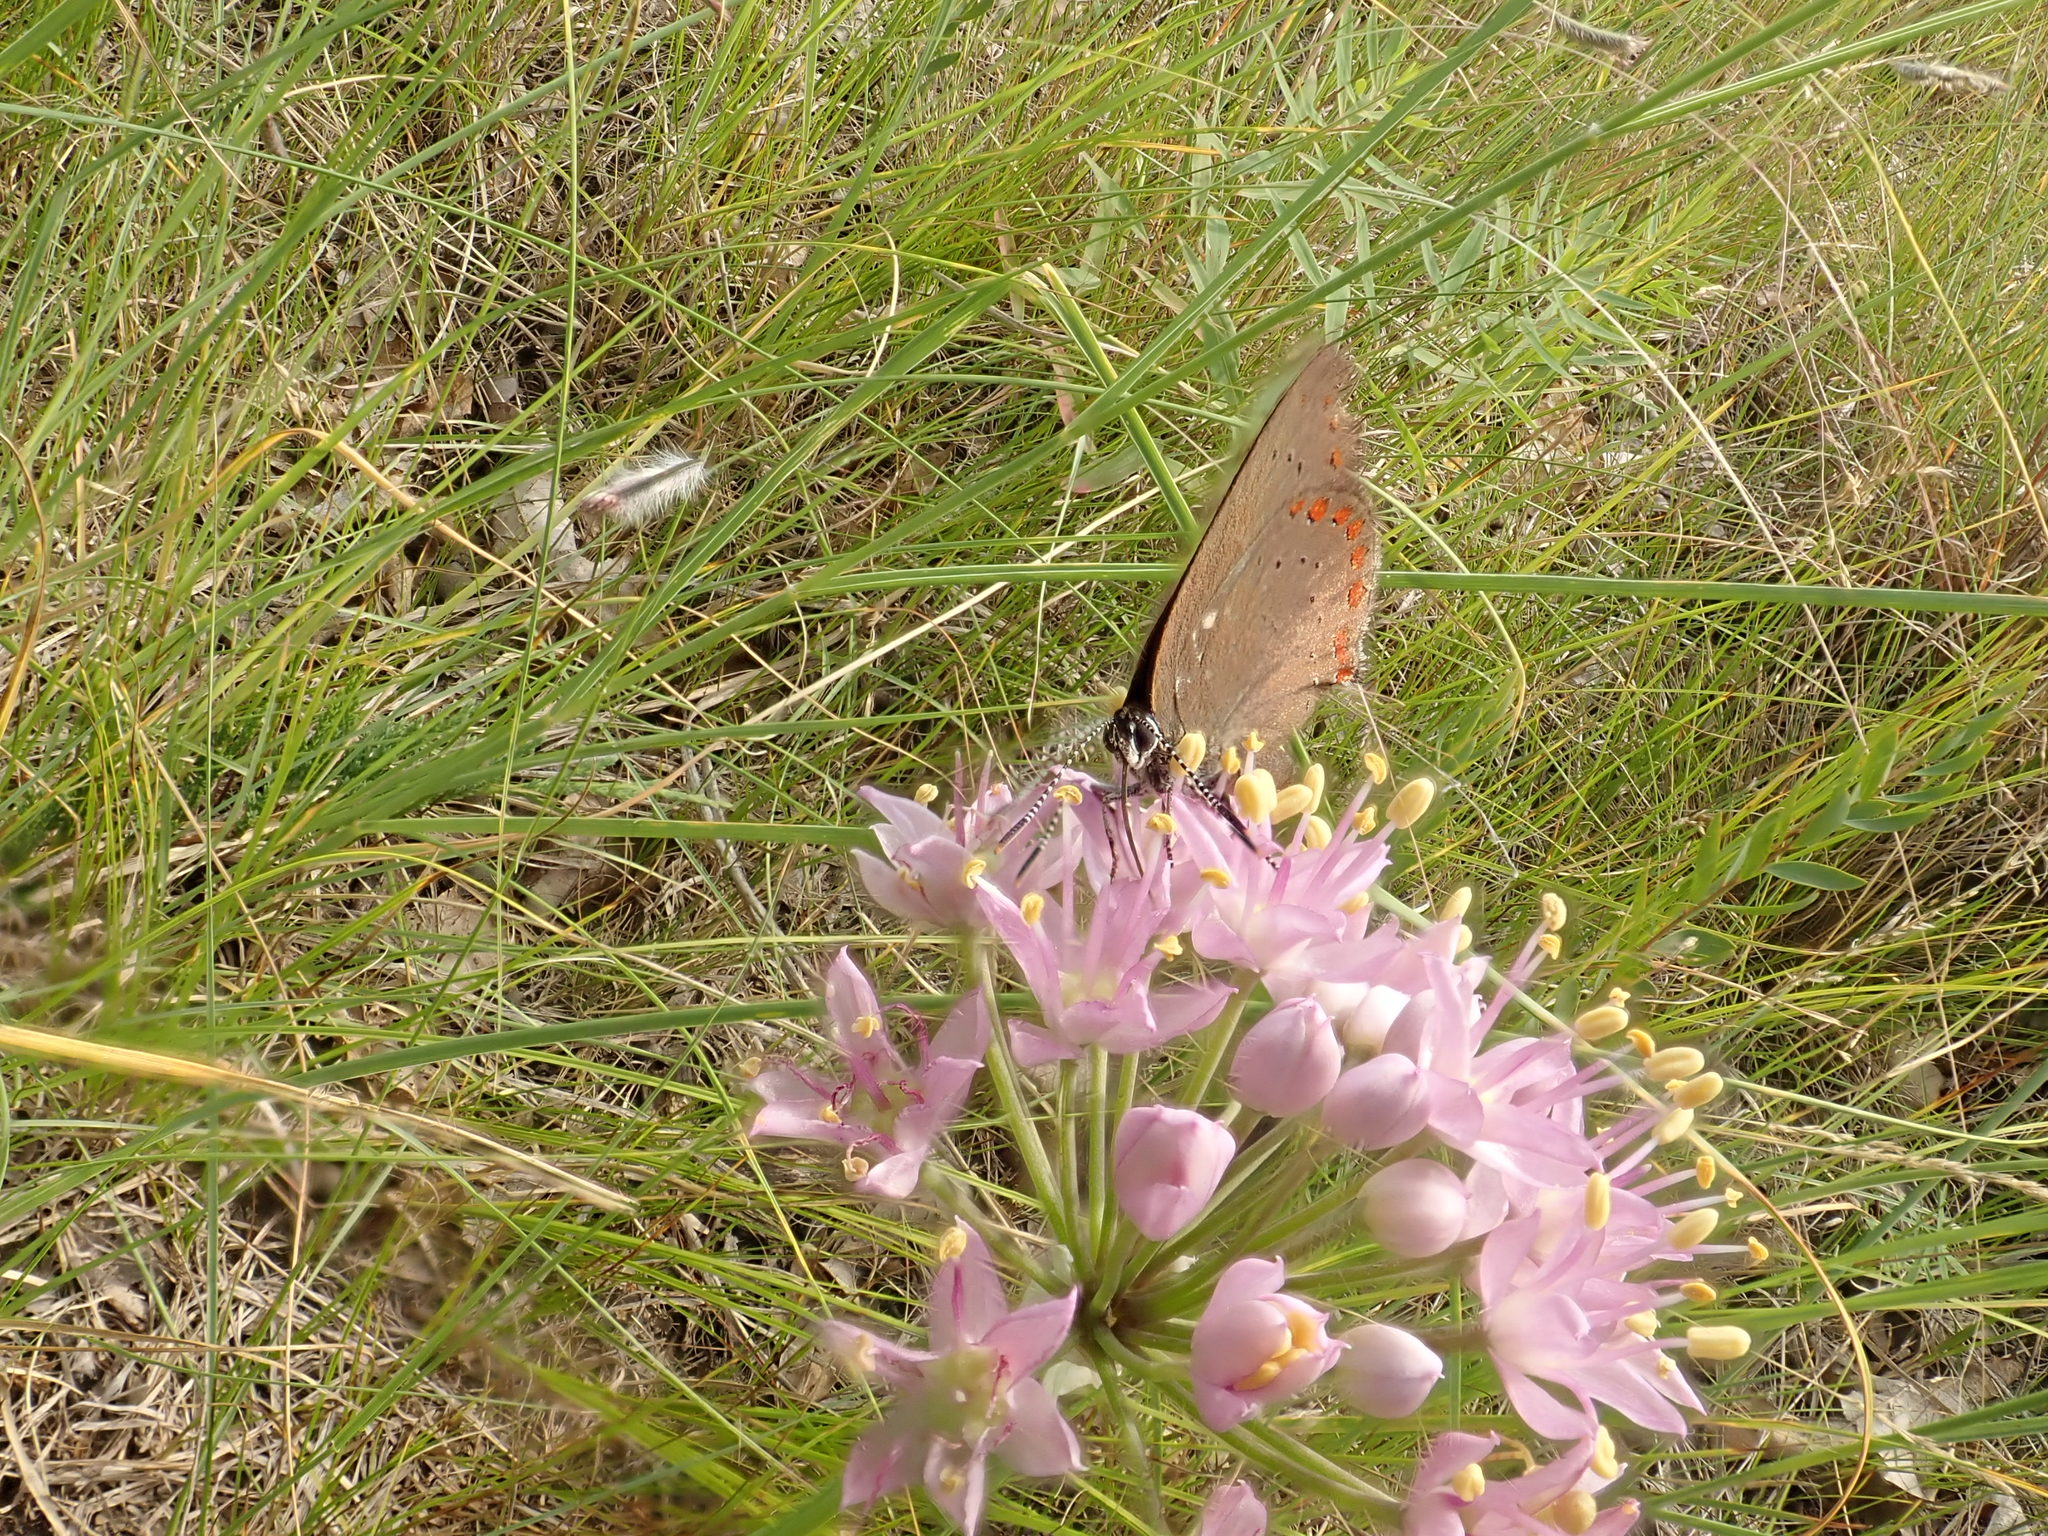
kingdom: Plantae
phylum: Tracheophyta
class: Liliopsida
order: Asparagales
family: Amaryllidaceae
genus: Allium
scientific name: Allium stellatum
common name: Autumn onion
